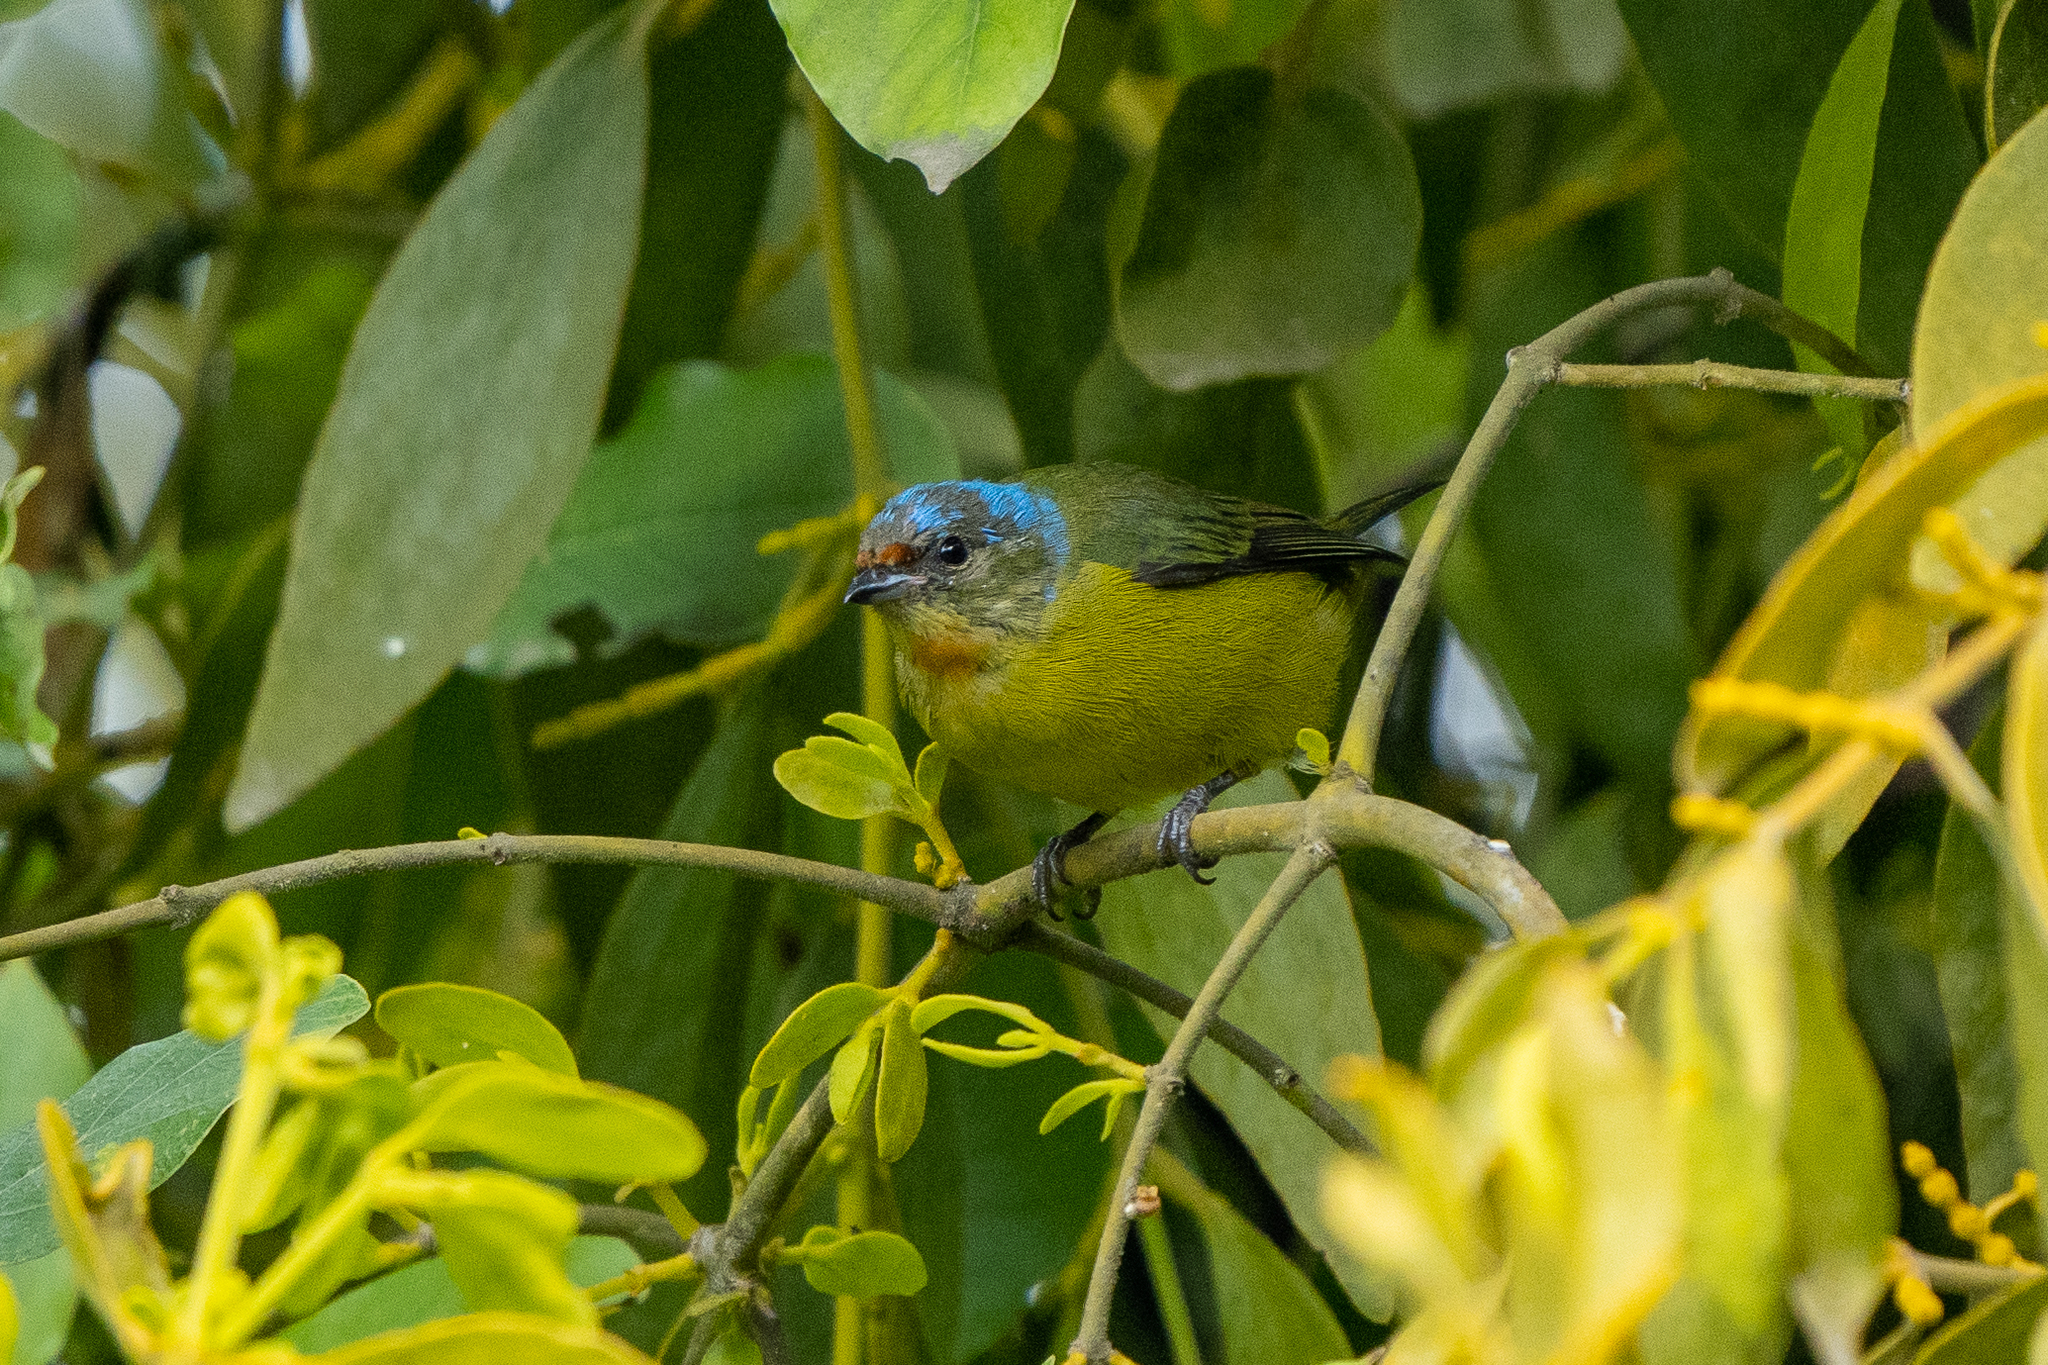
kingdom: Animalia
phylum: Chordata
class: Aves
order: Passeriformes
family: Fringillidae
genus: Euphonia
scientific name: Euphonia elegantissima
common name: Elegant euphonia
